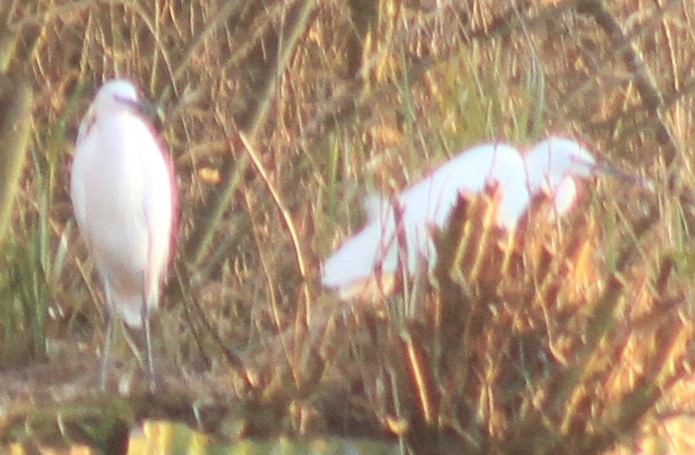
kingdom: Animalia
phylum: Chordata
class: Aves
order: Pelecaniformes
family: Ardeidae
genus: Egretta
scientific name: Egretta garzetta
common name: Little egret
